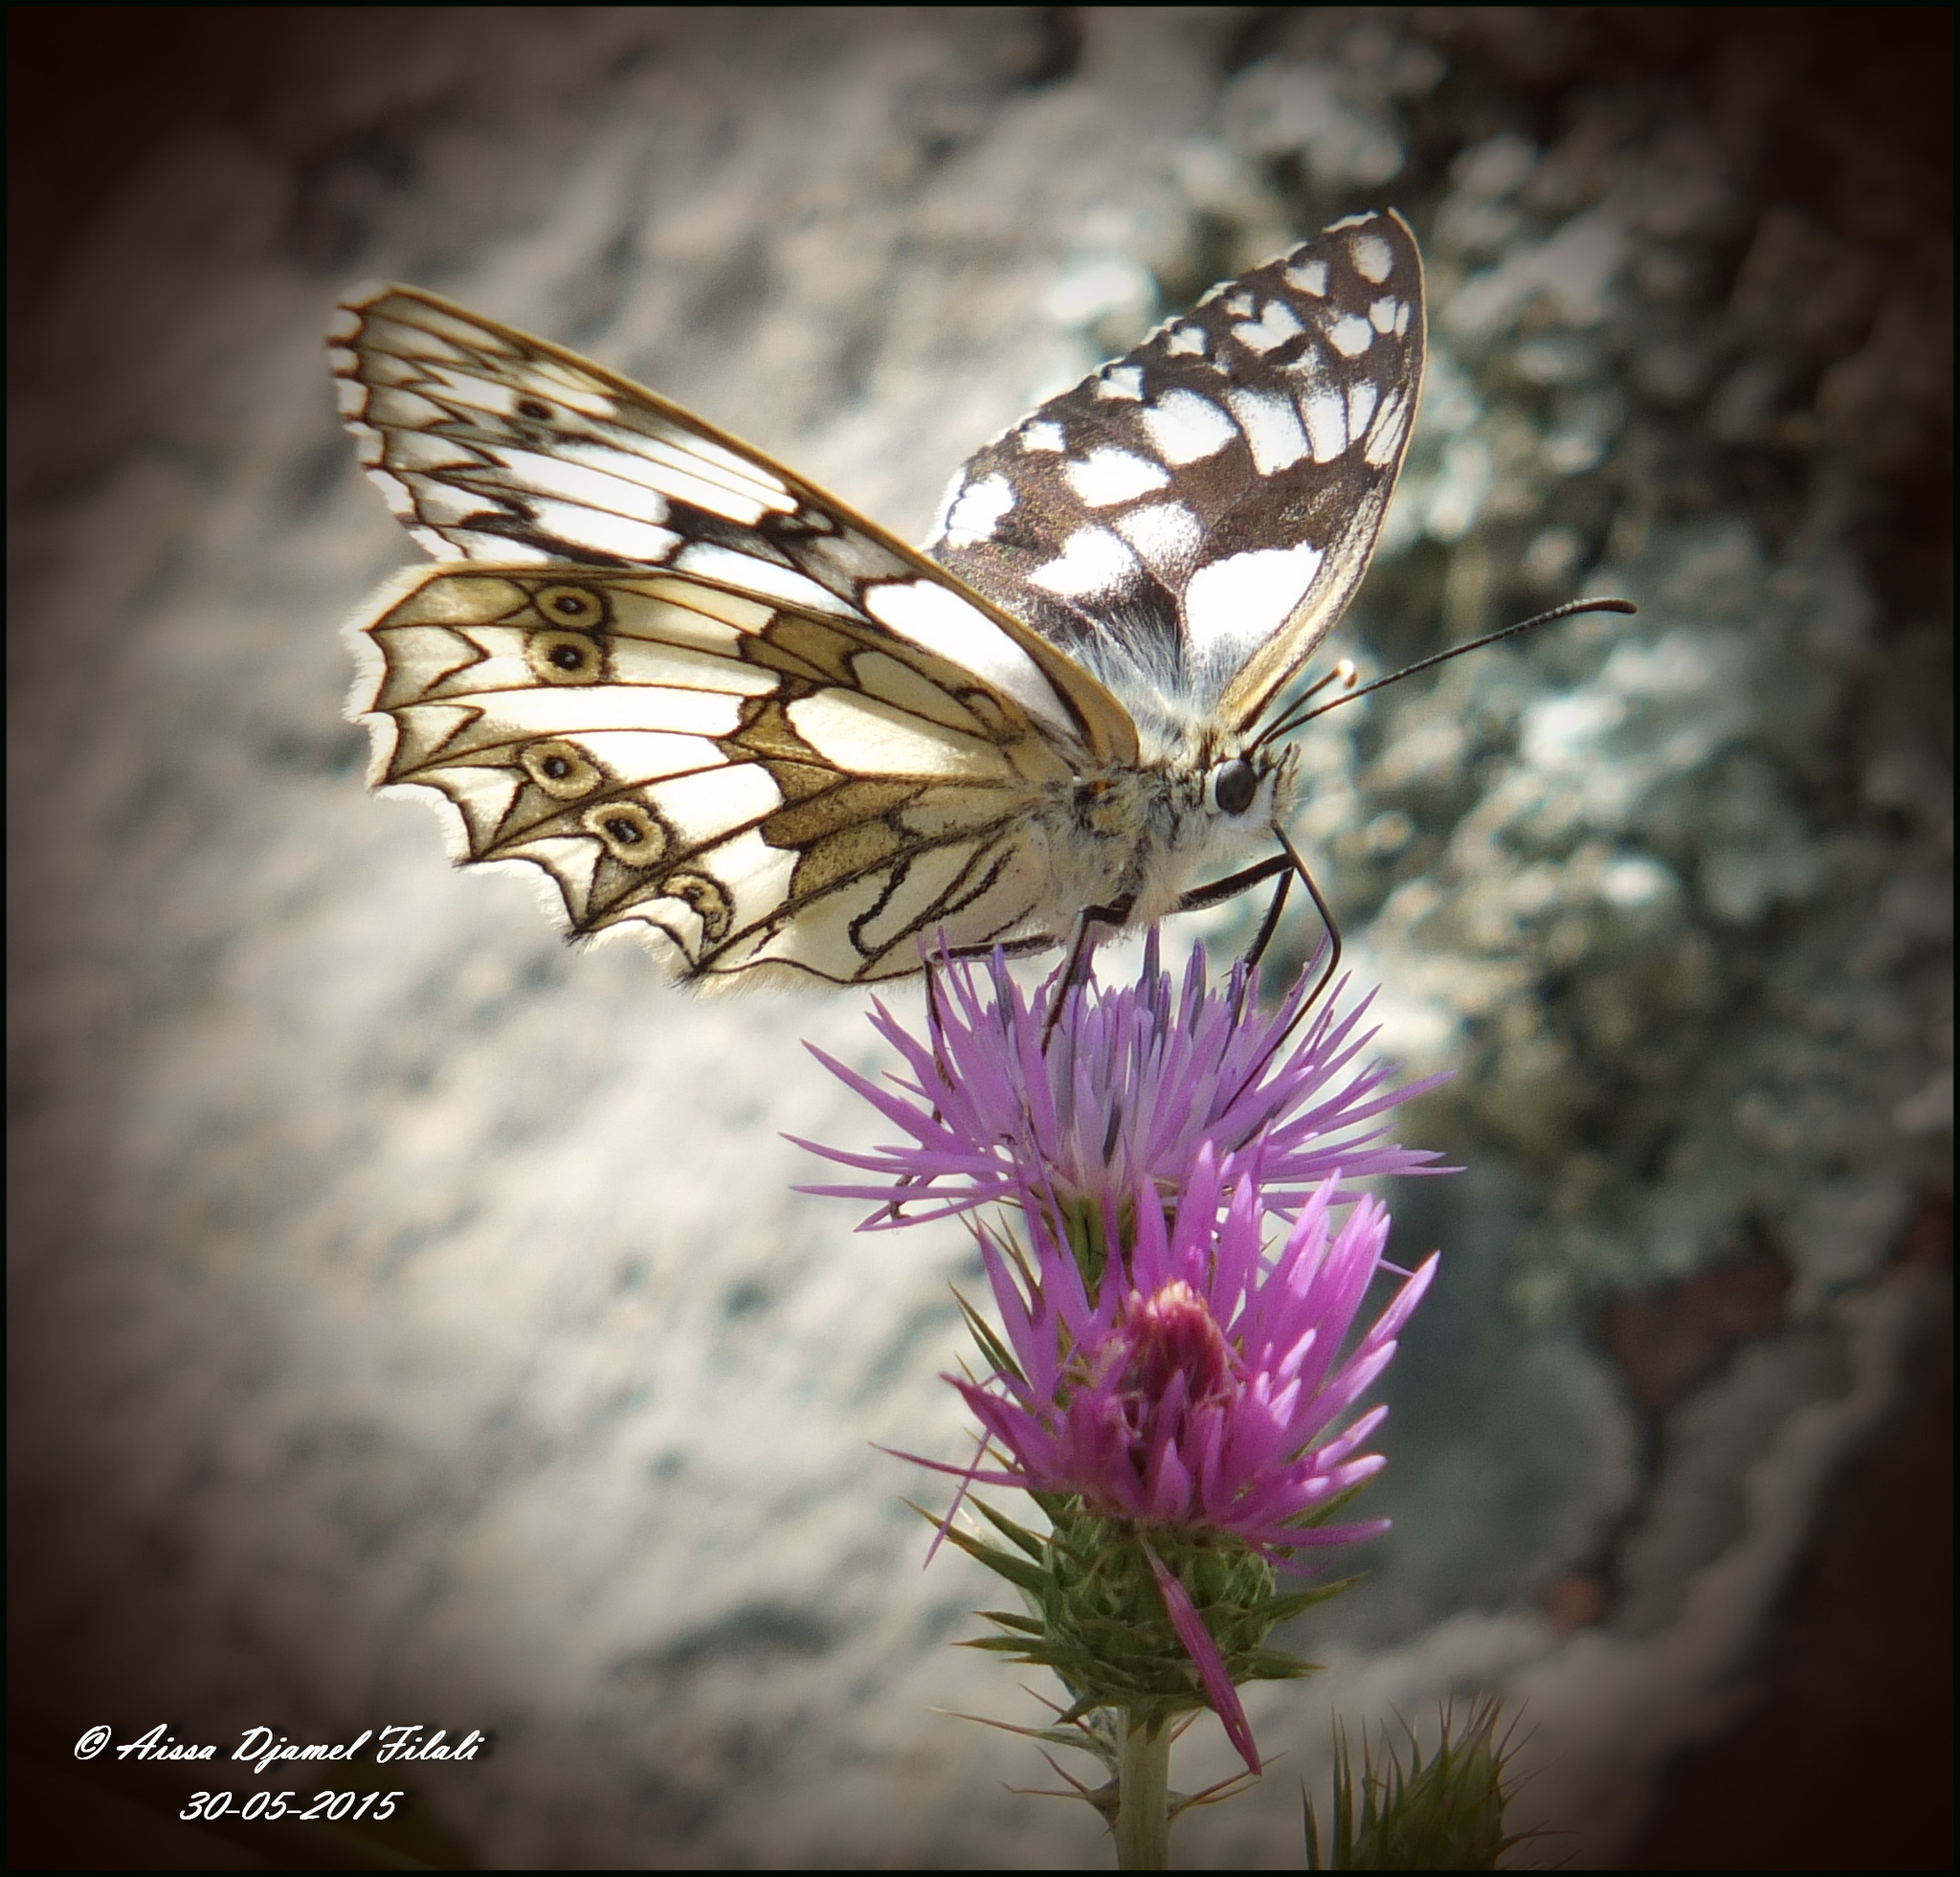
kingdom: Animalia
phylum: Arthropoda
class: Insecta
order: Lepidoptera
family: Nymphalidae
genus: Melanargia
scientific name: Melanargia lucasi
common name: Moroccan marbled white
